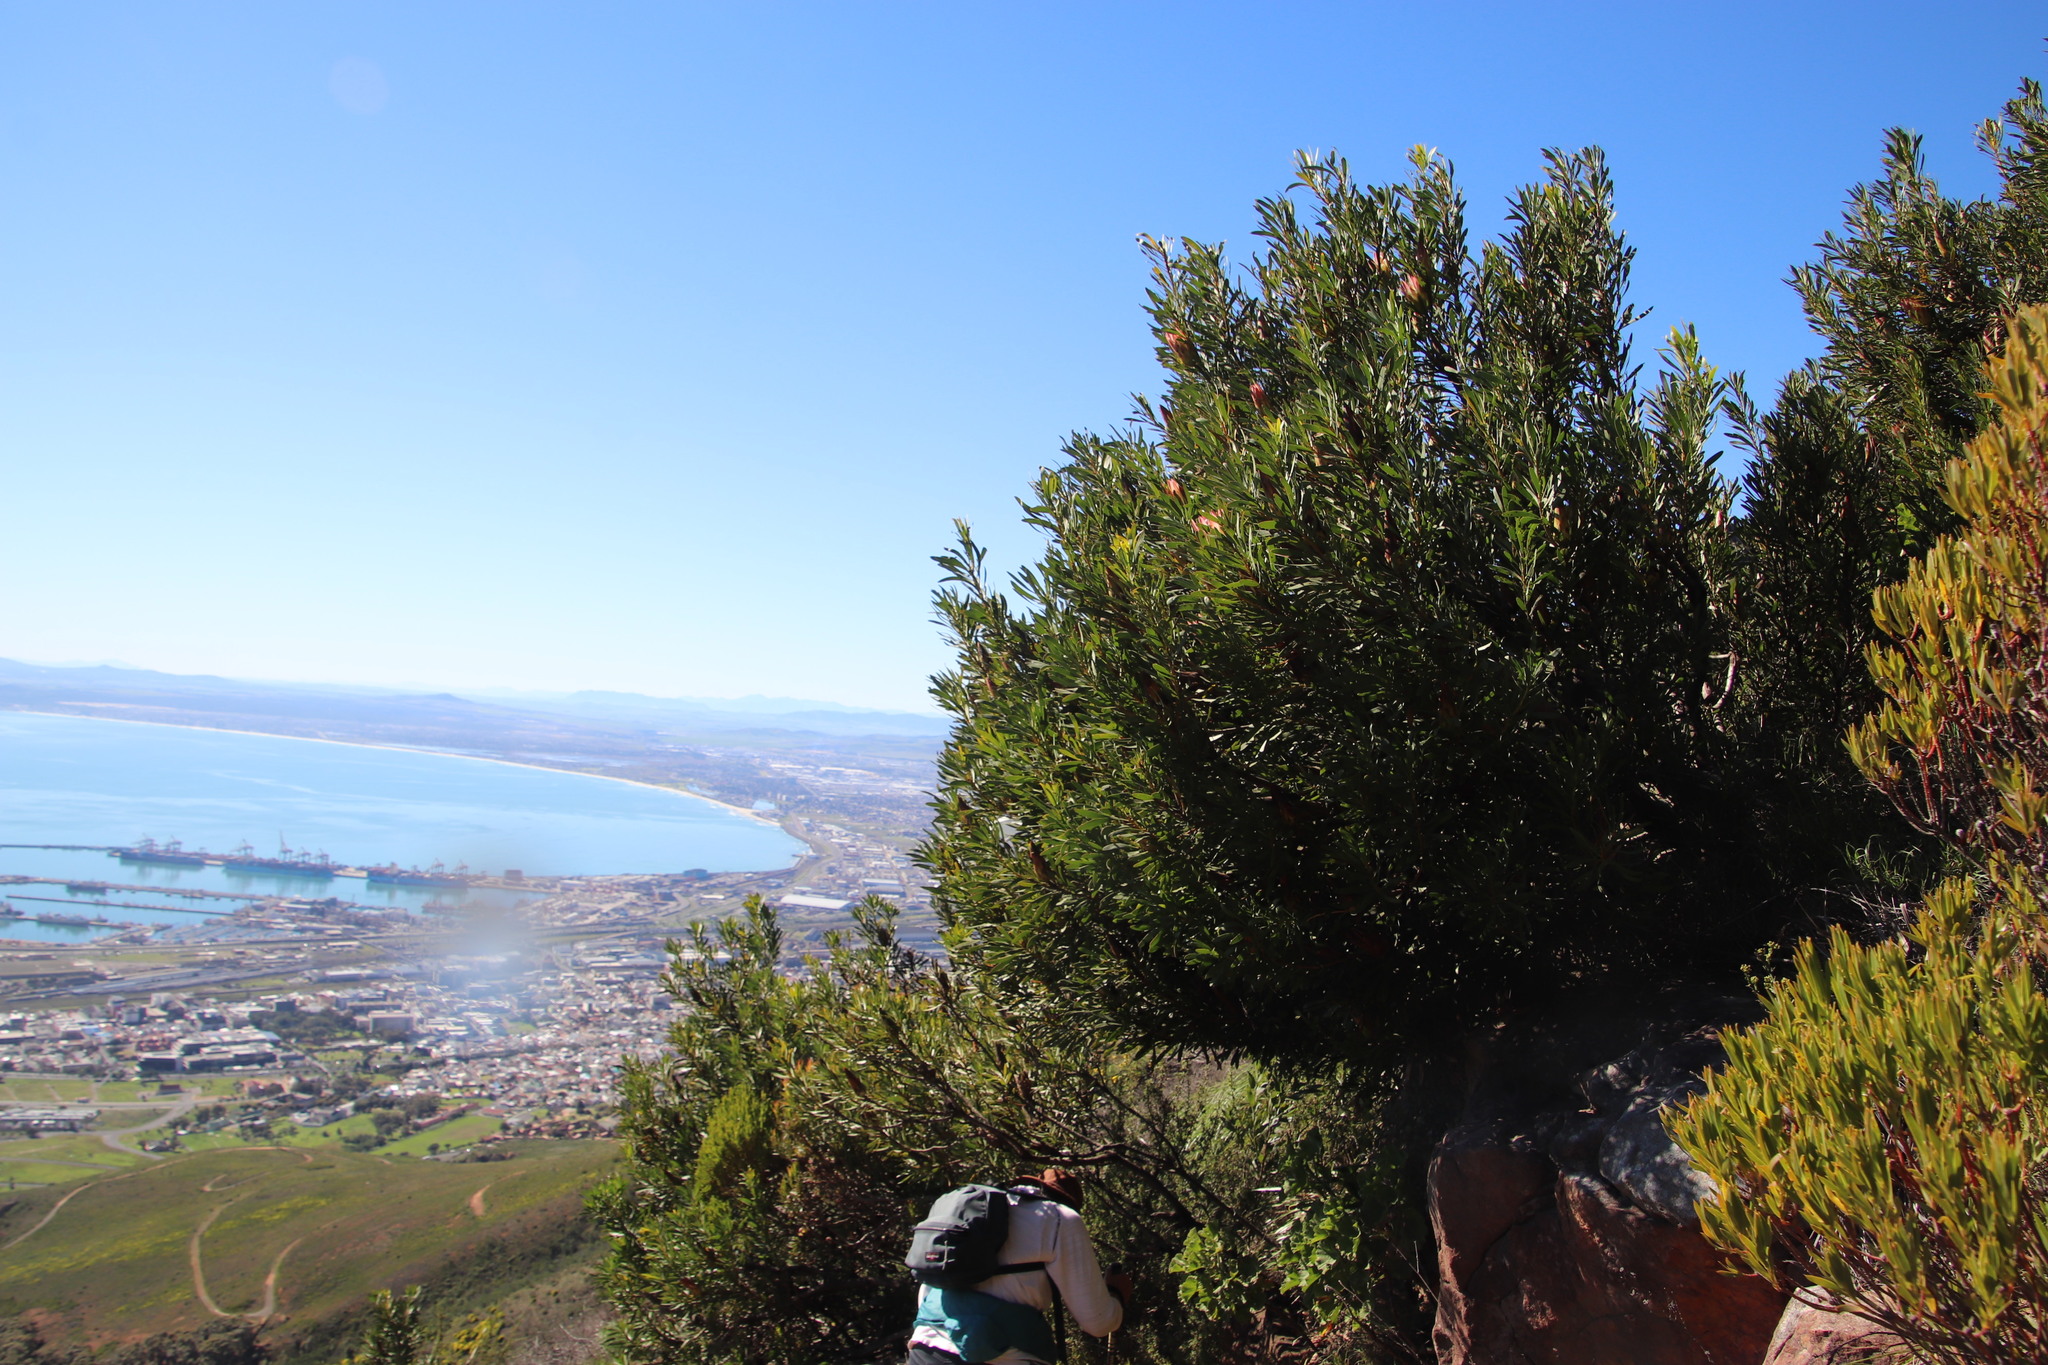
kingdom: Plantae
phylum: Tracheophyta
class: Magnoliopsida
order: Proteales
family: Proteaceae
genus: Protea
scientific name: Protea repens
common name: Sugarbush
